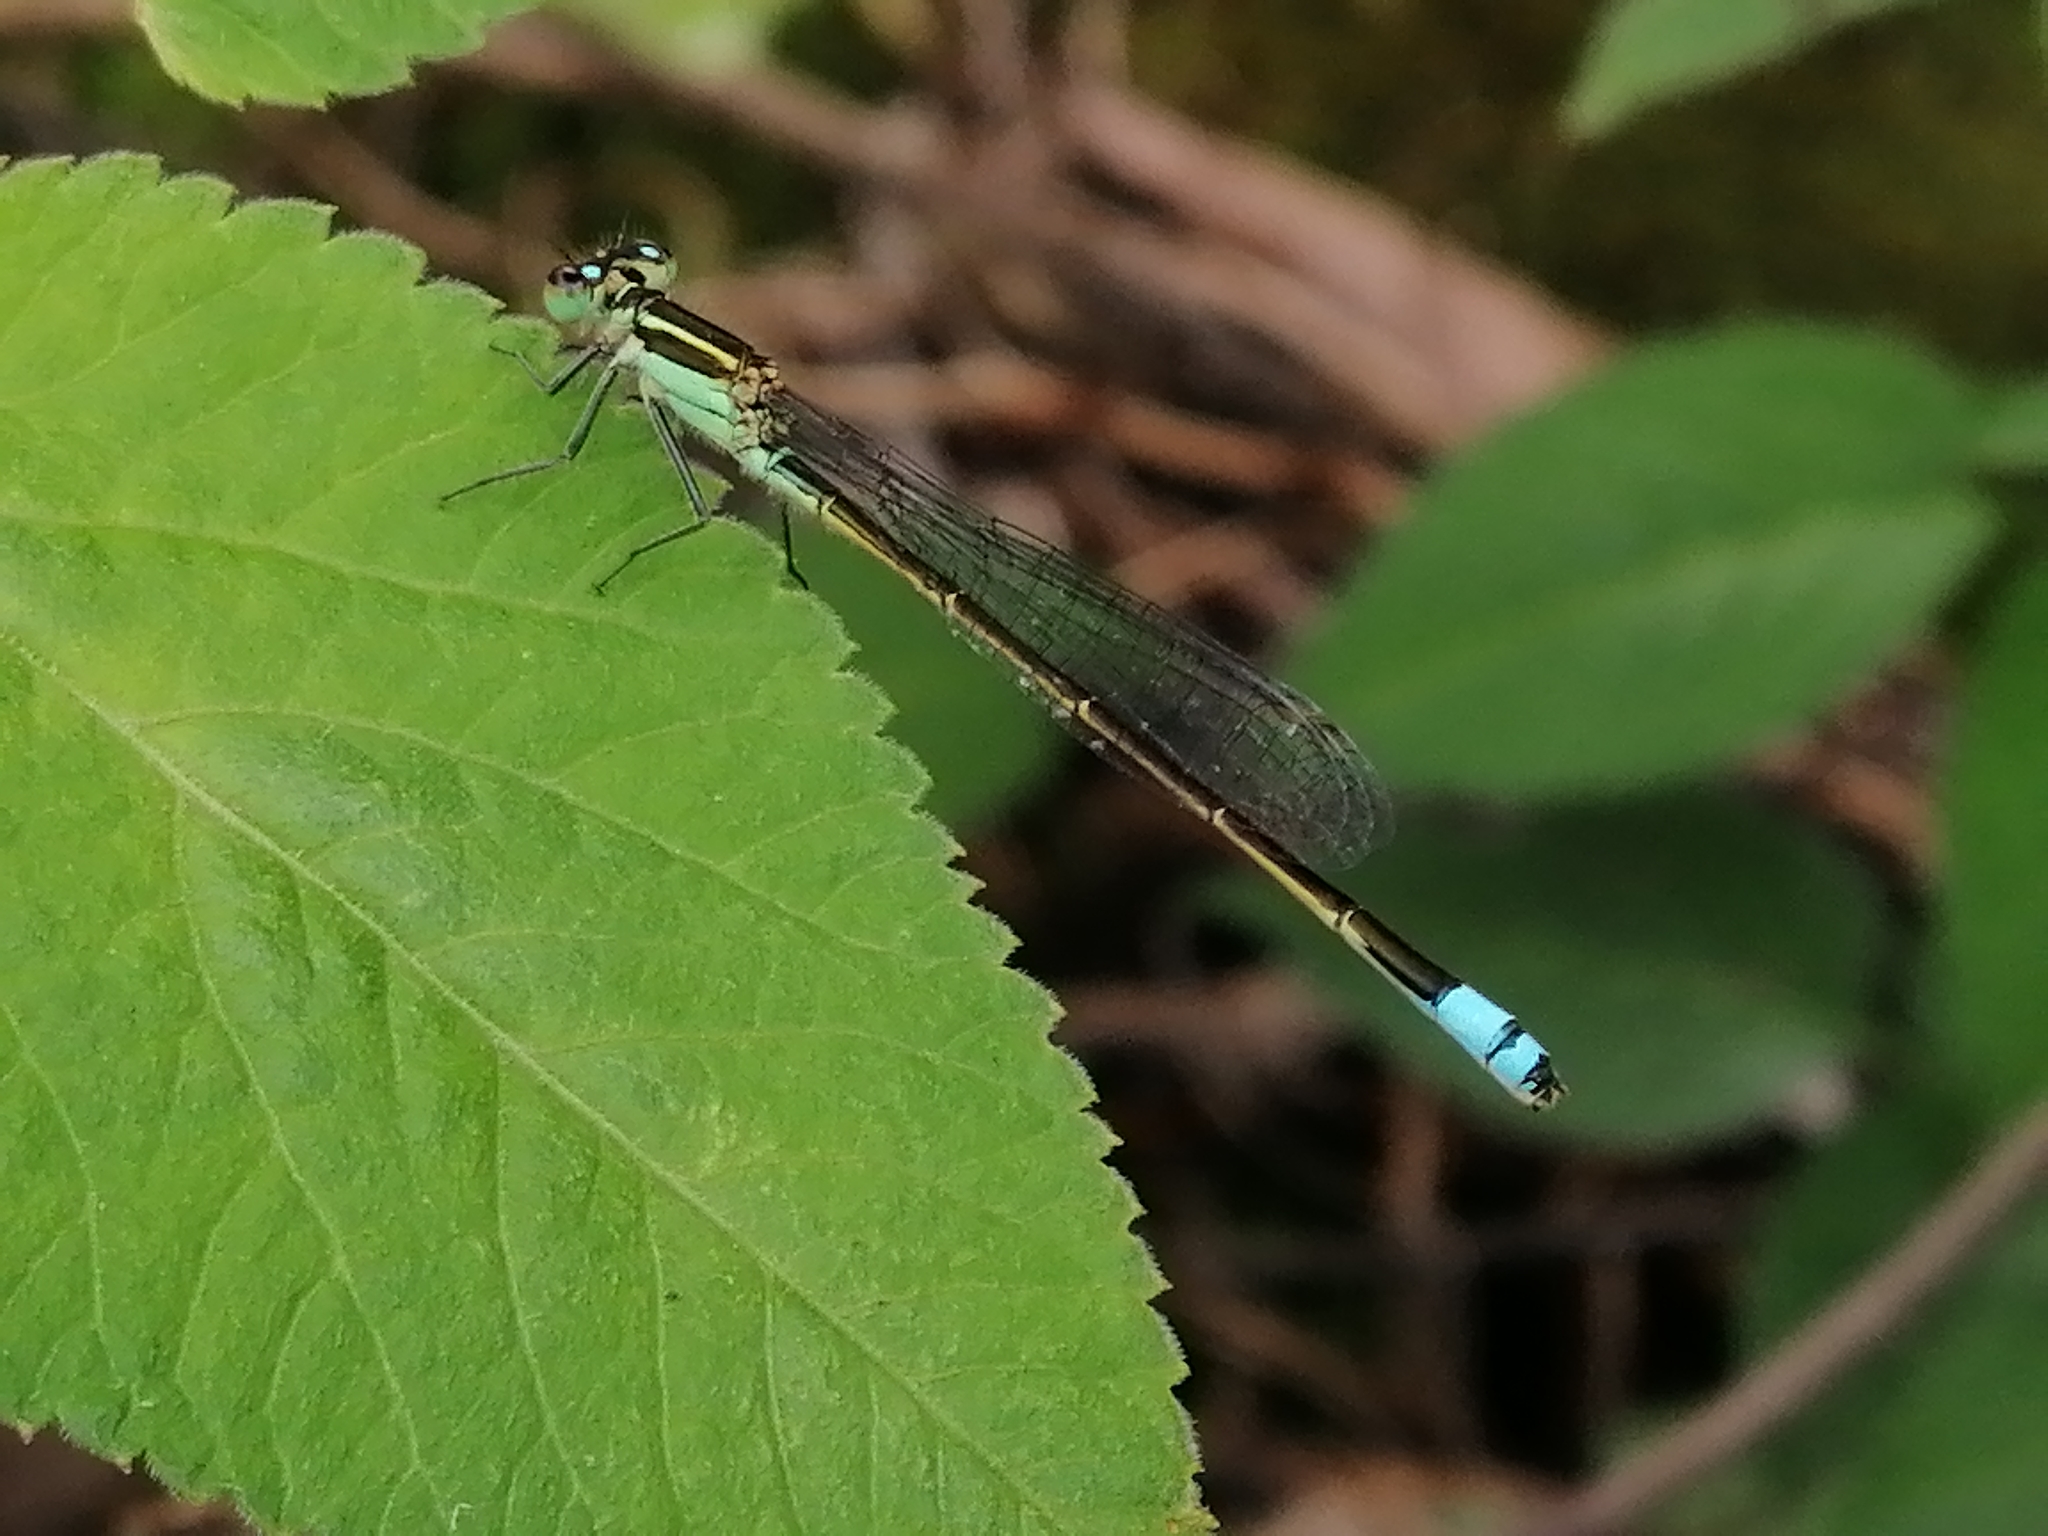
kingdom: Animalia
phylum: Arthropoda
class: Insecta
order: Odonata
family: Coenagrionidae
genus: Ischnura
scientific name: Ischnura ramburii
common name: Rambur's forktail
